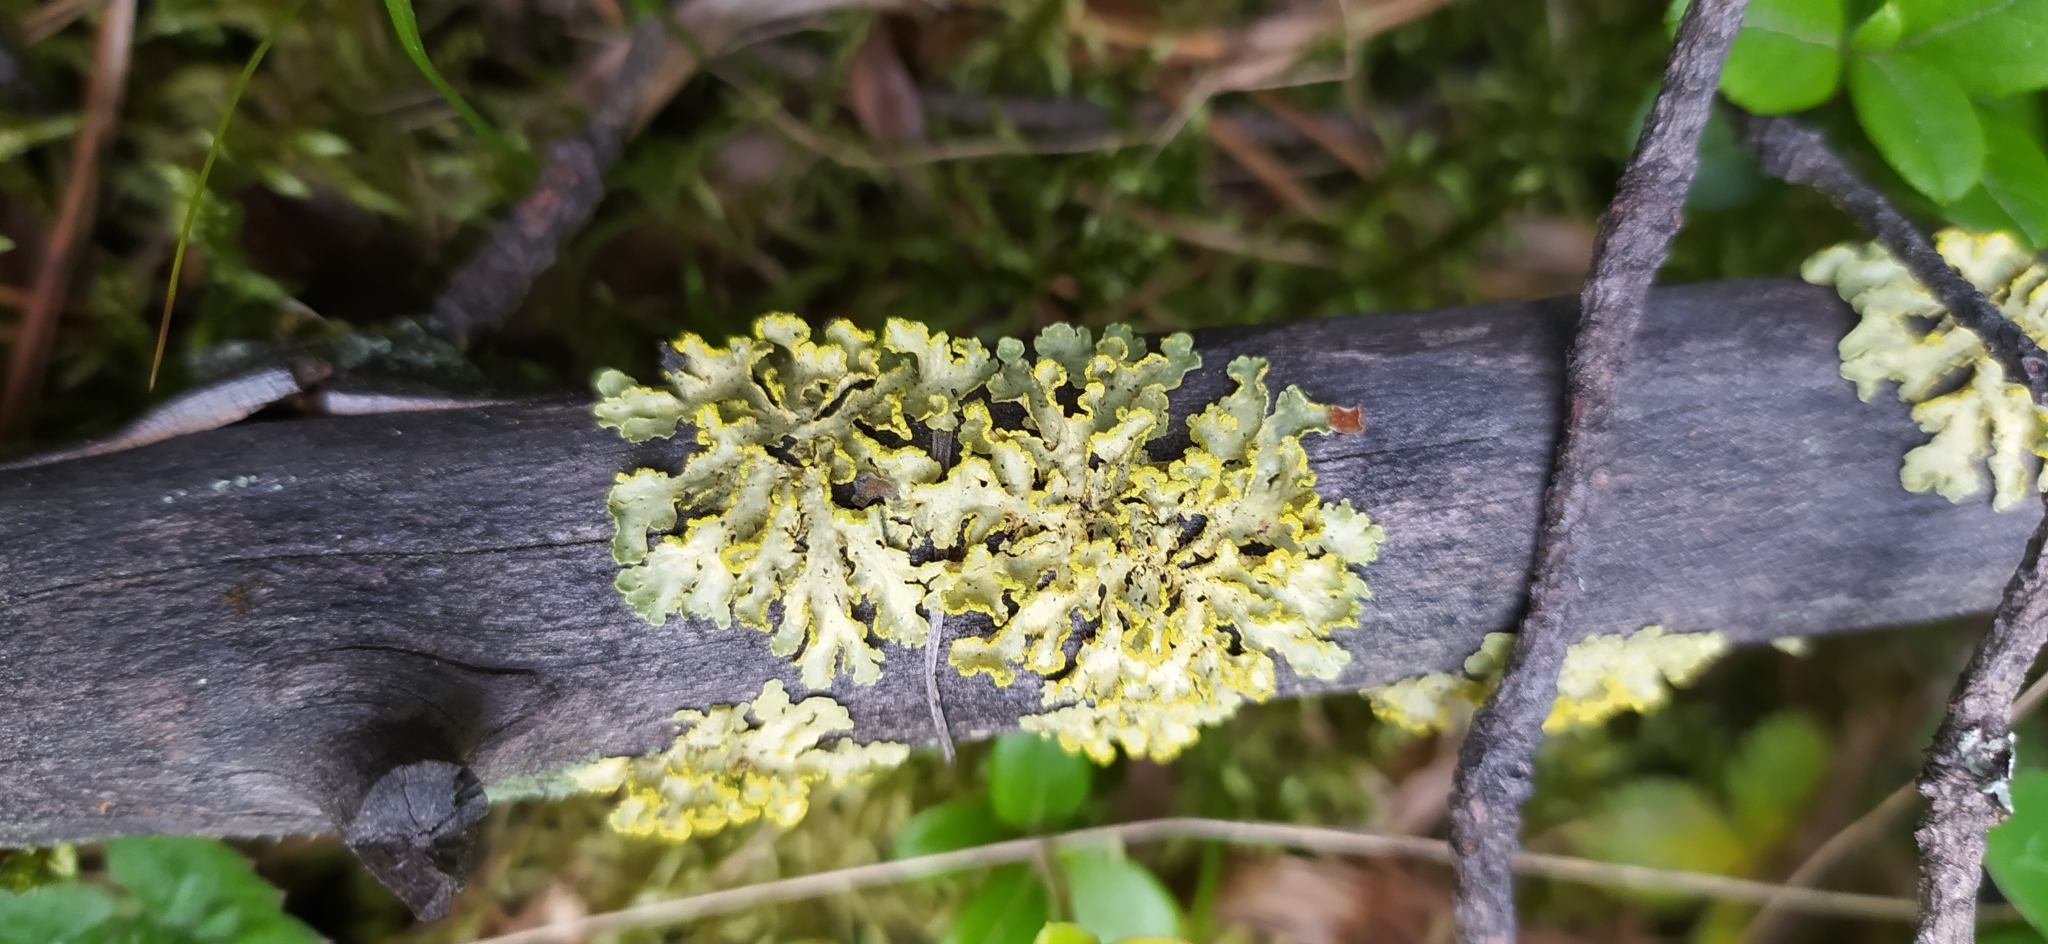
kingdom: Fungi
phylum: Ascomycota
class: Lecanoromycetes
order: Lecanorales
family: Parmeliaceae
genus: Vulpicida
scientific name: Vulpicida pinastri
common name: Powdered sunshine lichen
